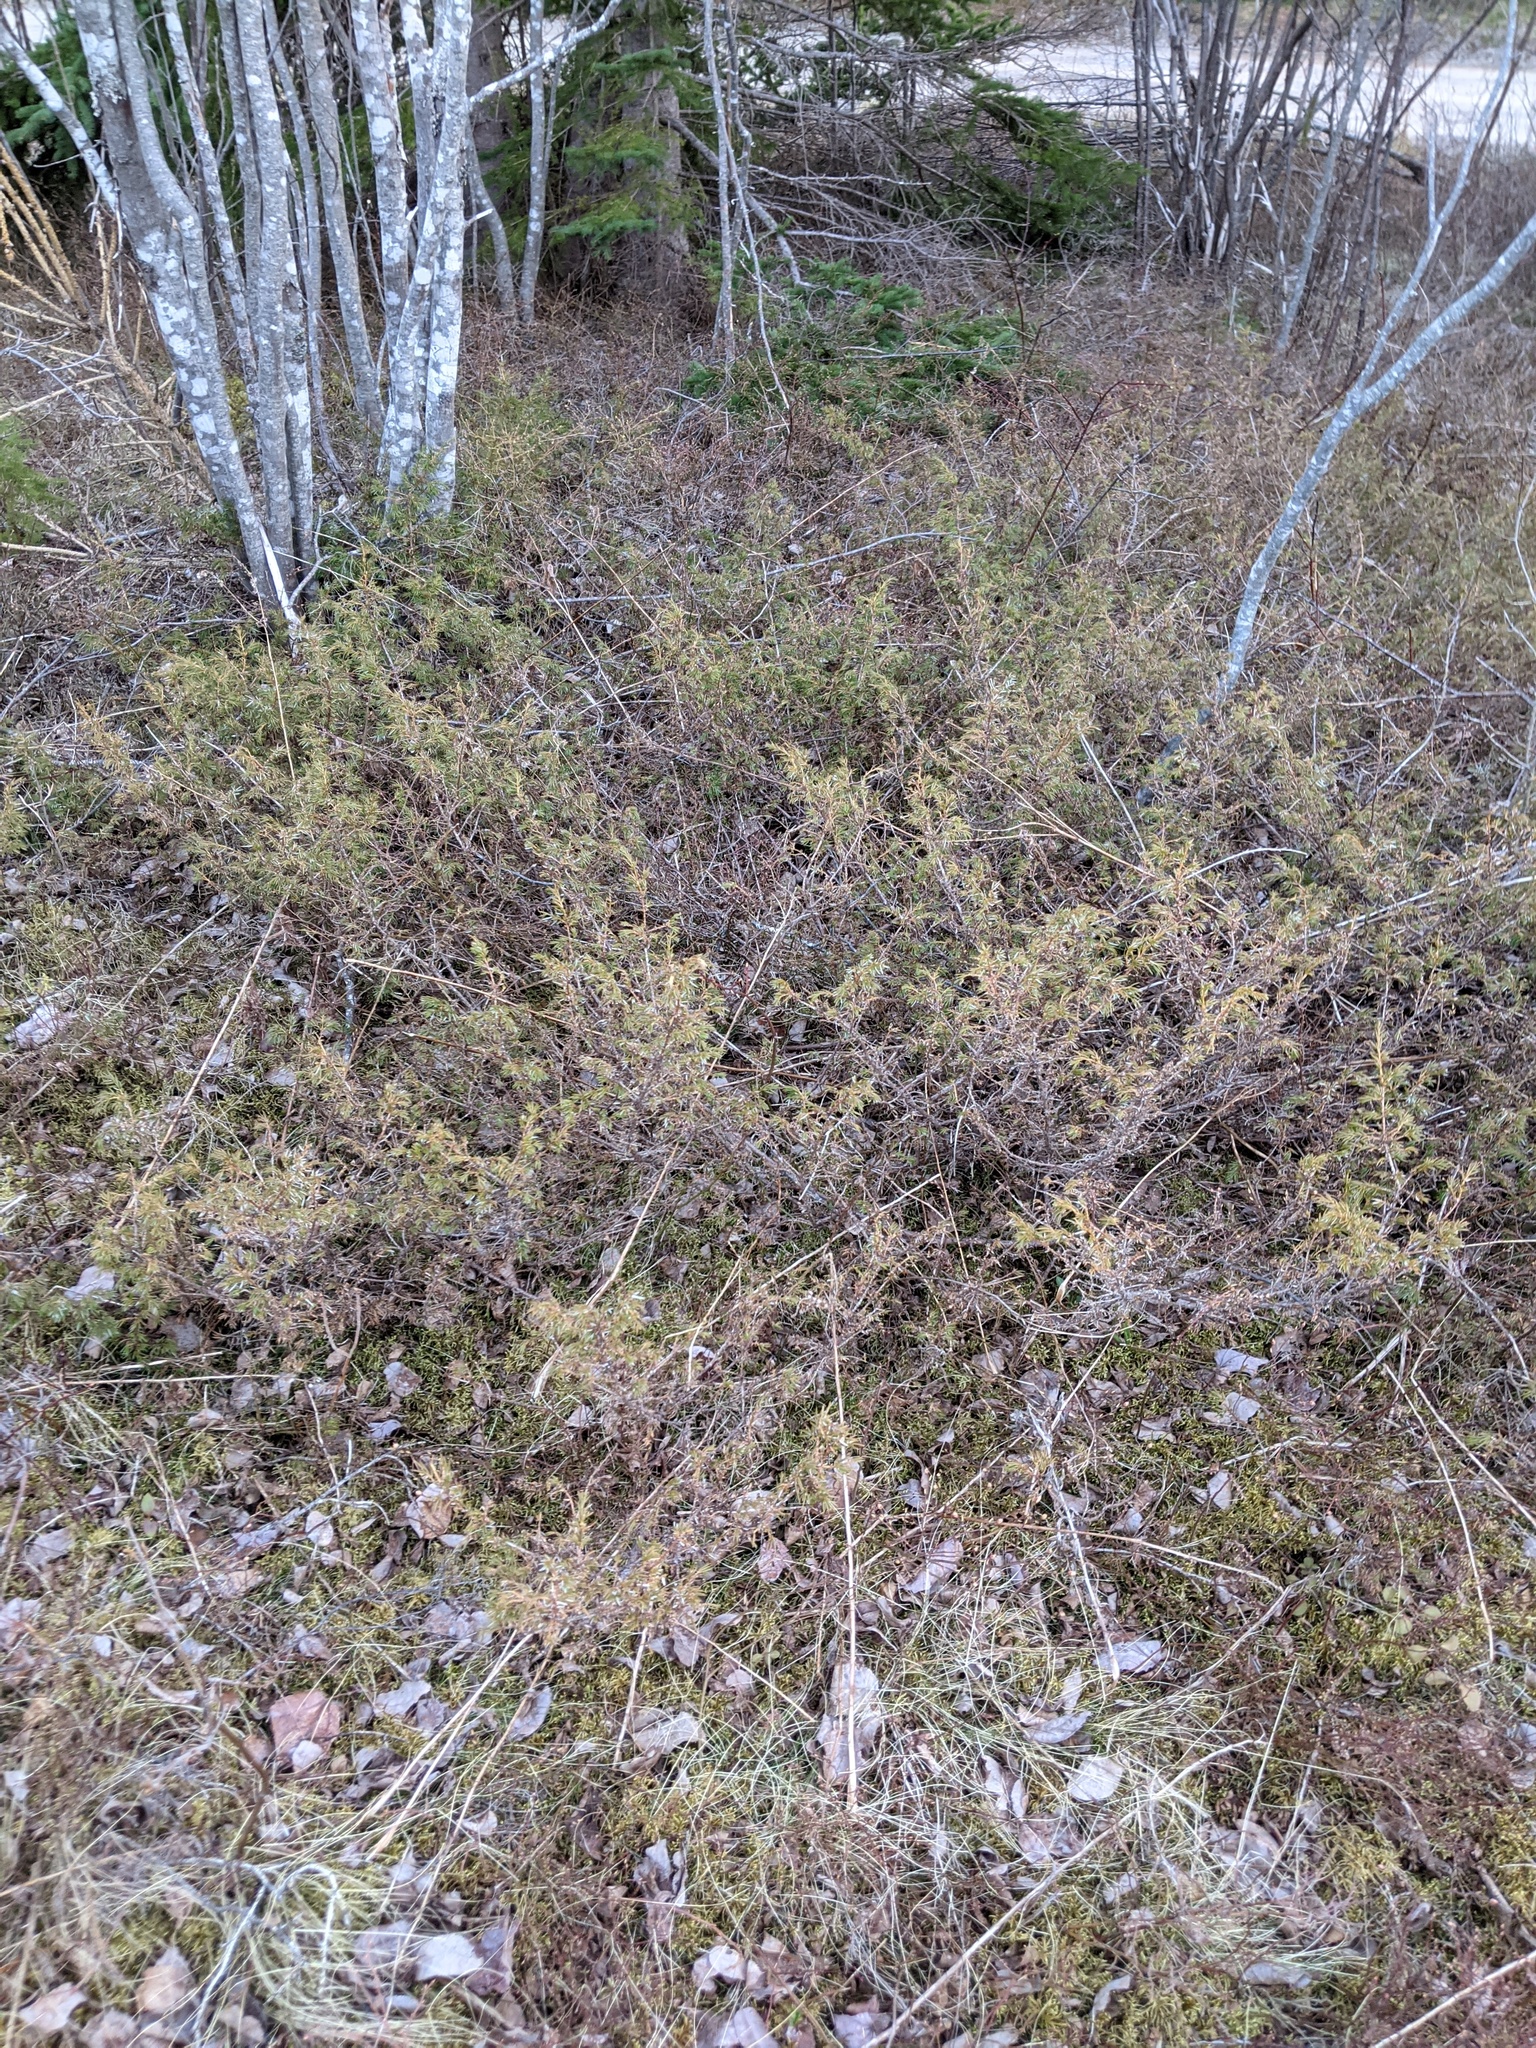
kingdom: Plantae
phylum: Tracheophyta
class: Pinopsida
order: Pinales
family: Cupressaceae
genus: Juniperus
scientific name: Juniperus communis
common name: Common juniper
